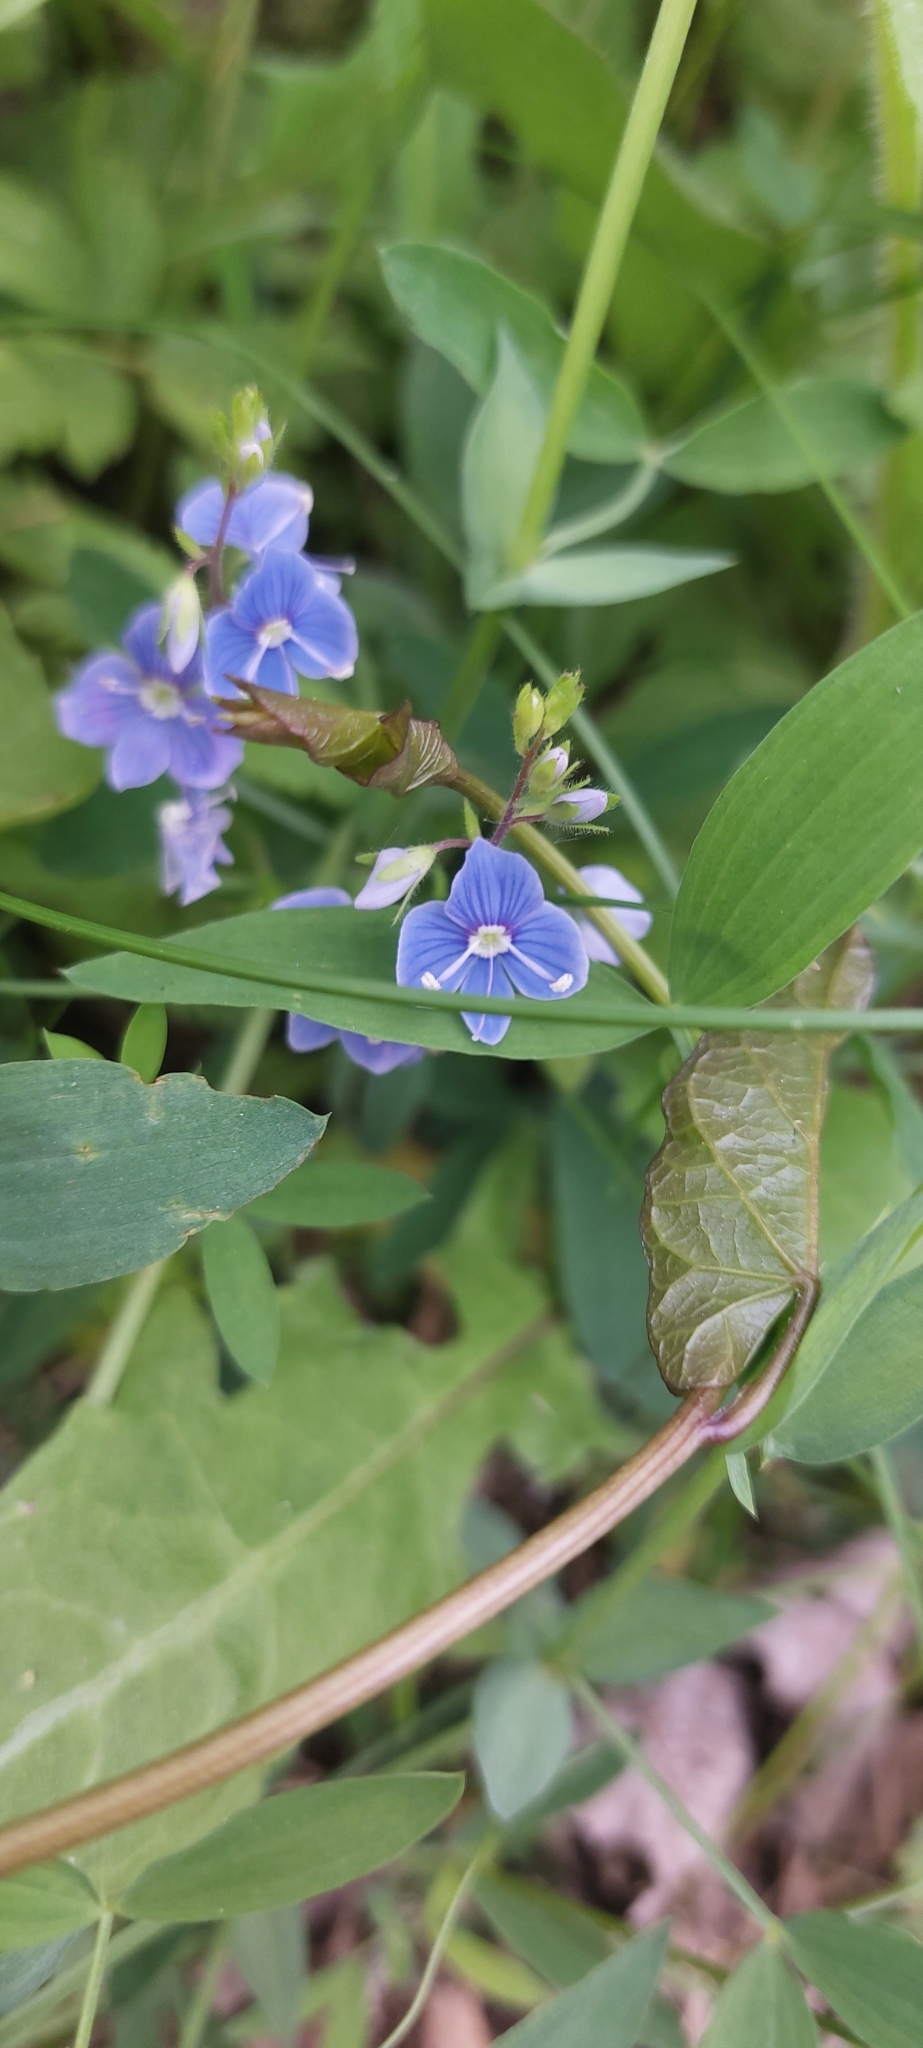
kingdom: Plantae
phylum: Tracheophyta
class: Magnoliopsida
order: Lamiales
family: Plantaginaceae
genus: Veronica
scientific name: Veronica chamaedrys
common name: Germander speedwell
